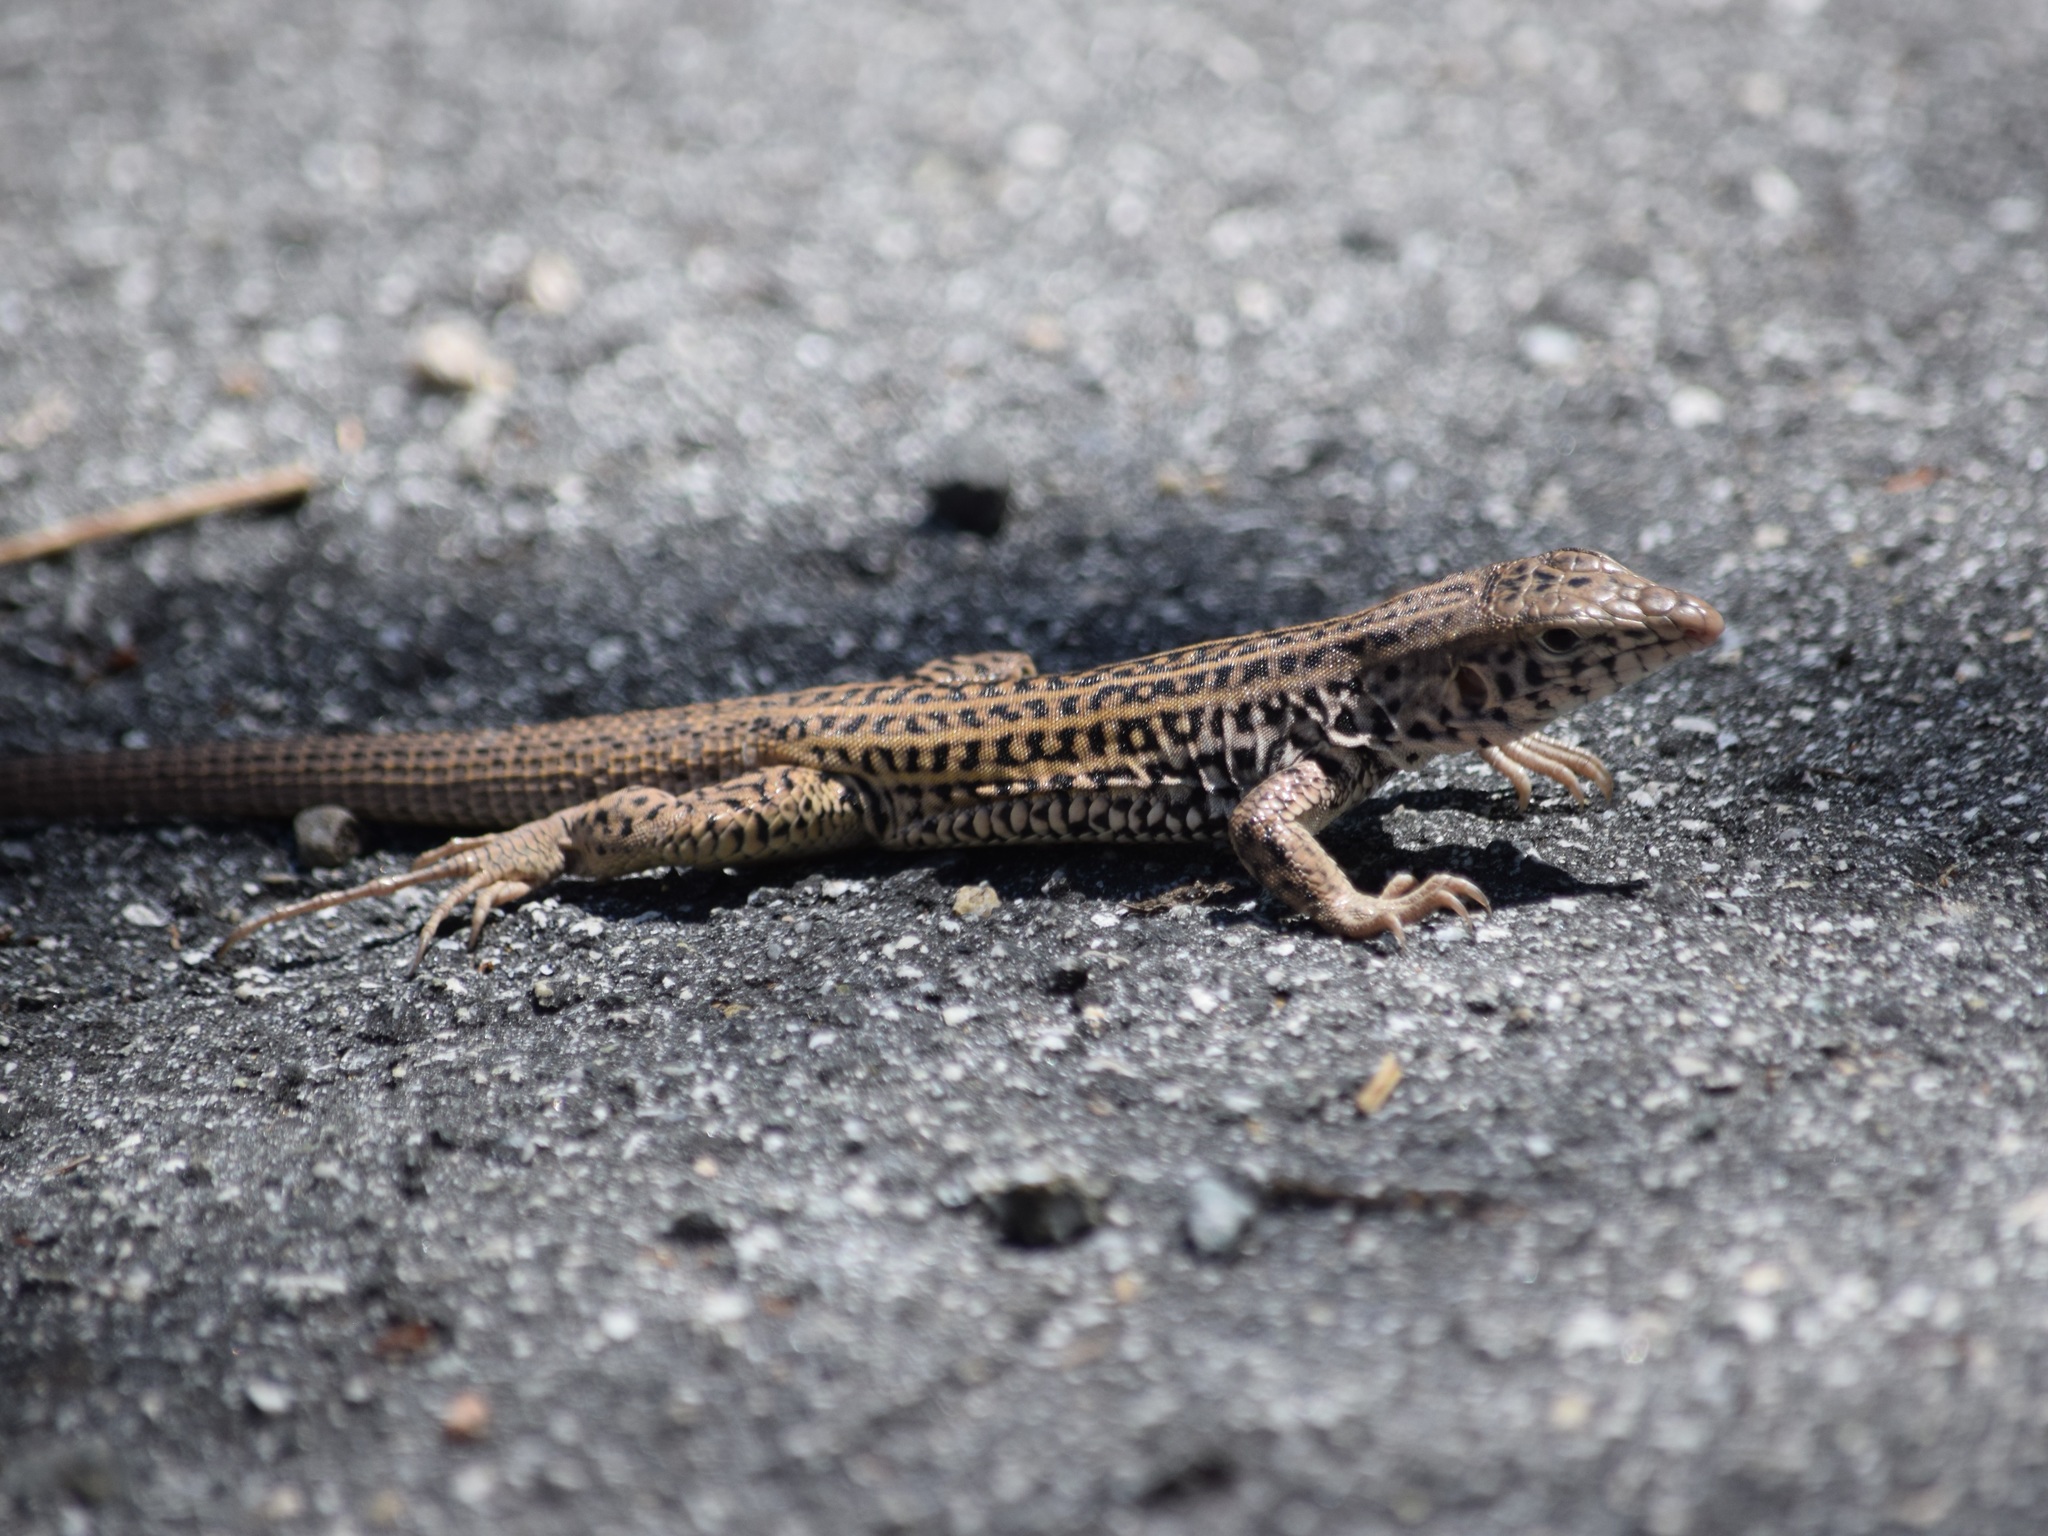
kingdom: Animalia
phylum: Chordata
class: Squamata
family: Teiidae
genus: Aspidoscelis
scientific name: Aspidoscelis tigris
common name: Tiger whiptail
